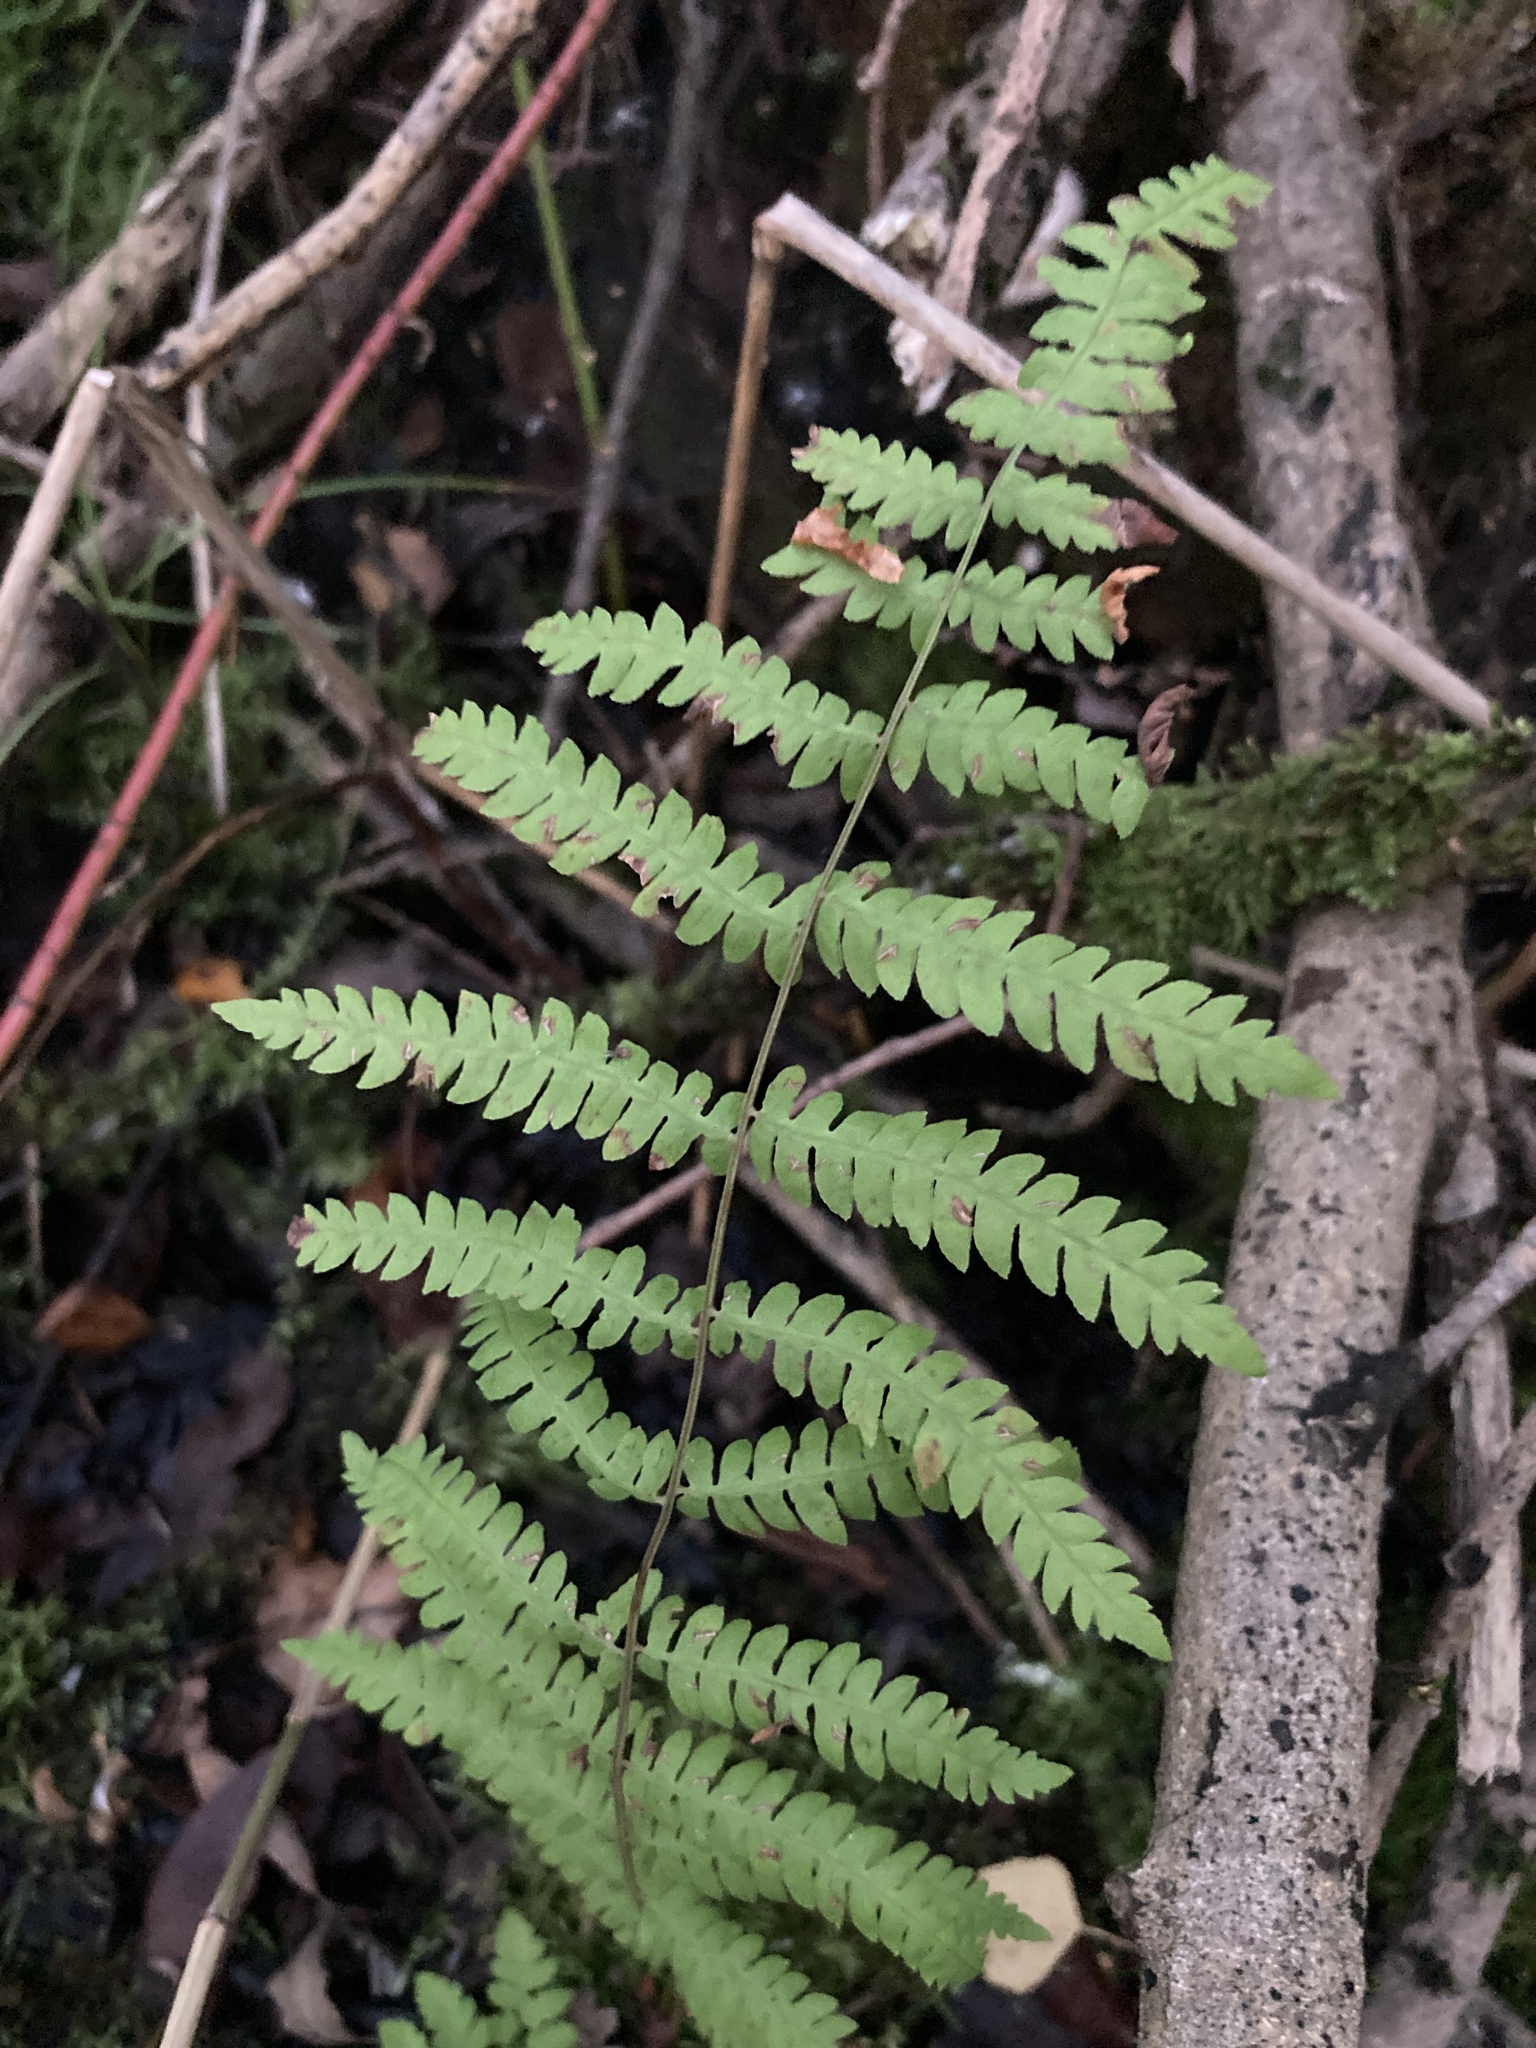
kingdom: Plantae
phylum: Tracheophyta
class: Polypodiopsida
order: Polypodiales
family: Thelypteridaceae
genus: Thelypteris
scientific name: Thelypteris palustris
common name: Marsh fern
